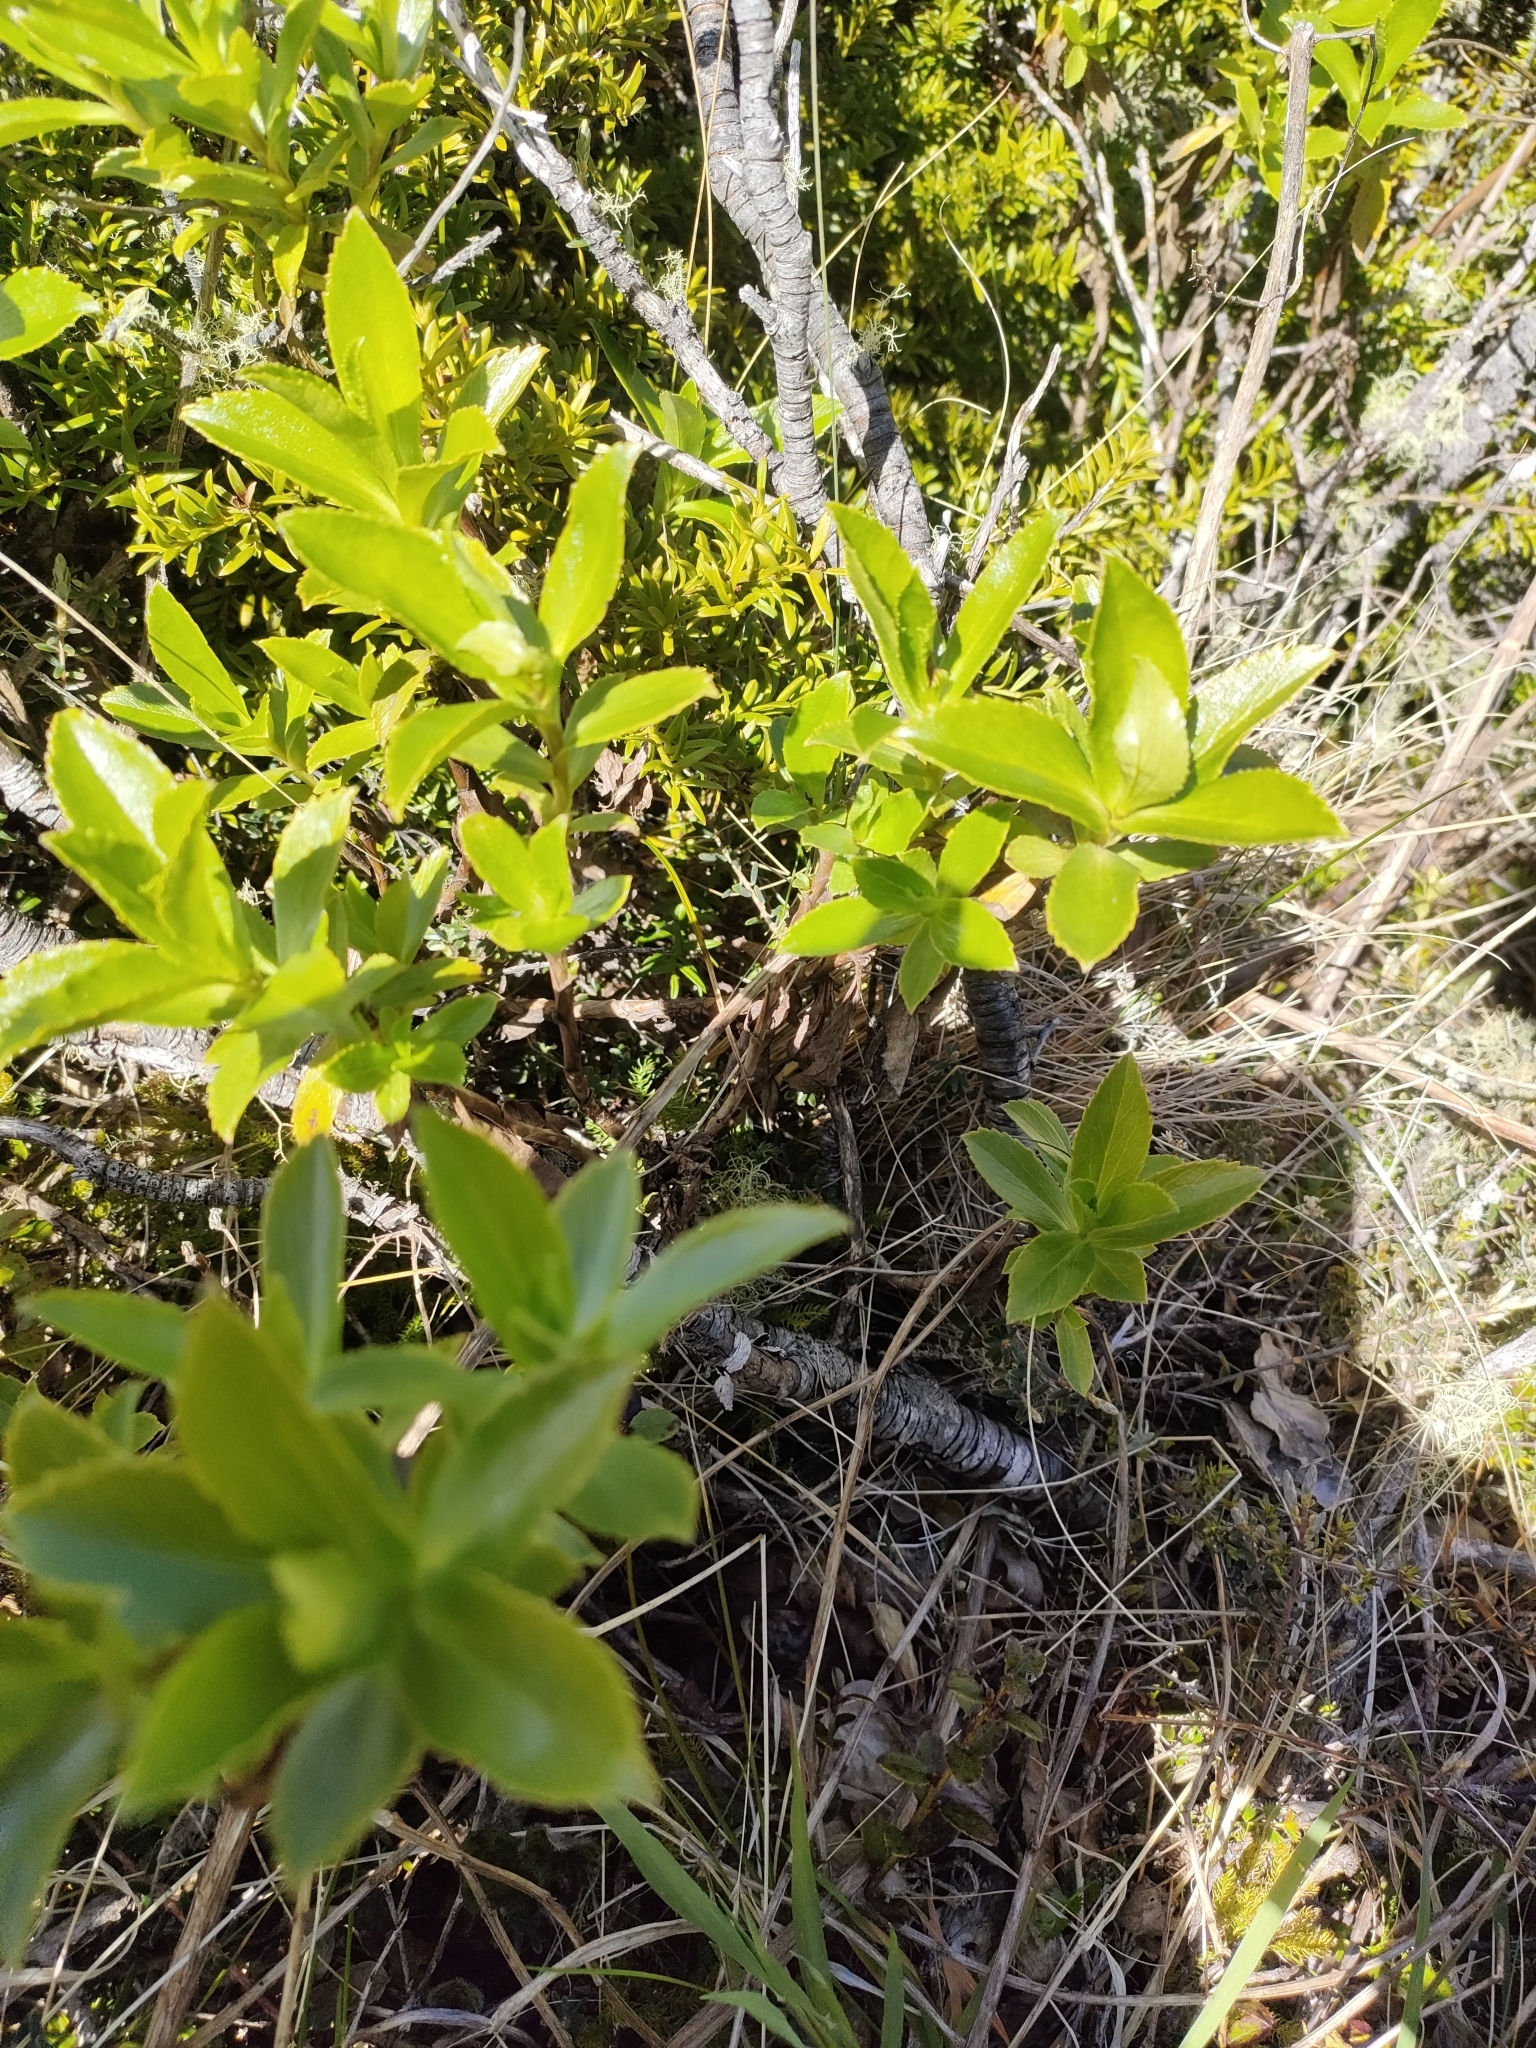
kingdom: Plantae
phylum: Tracheophyta
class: Magnoliopsida
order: Asterales
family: Asteraceae
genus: Traversia
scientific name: Traversia baccharoides
